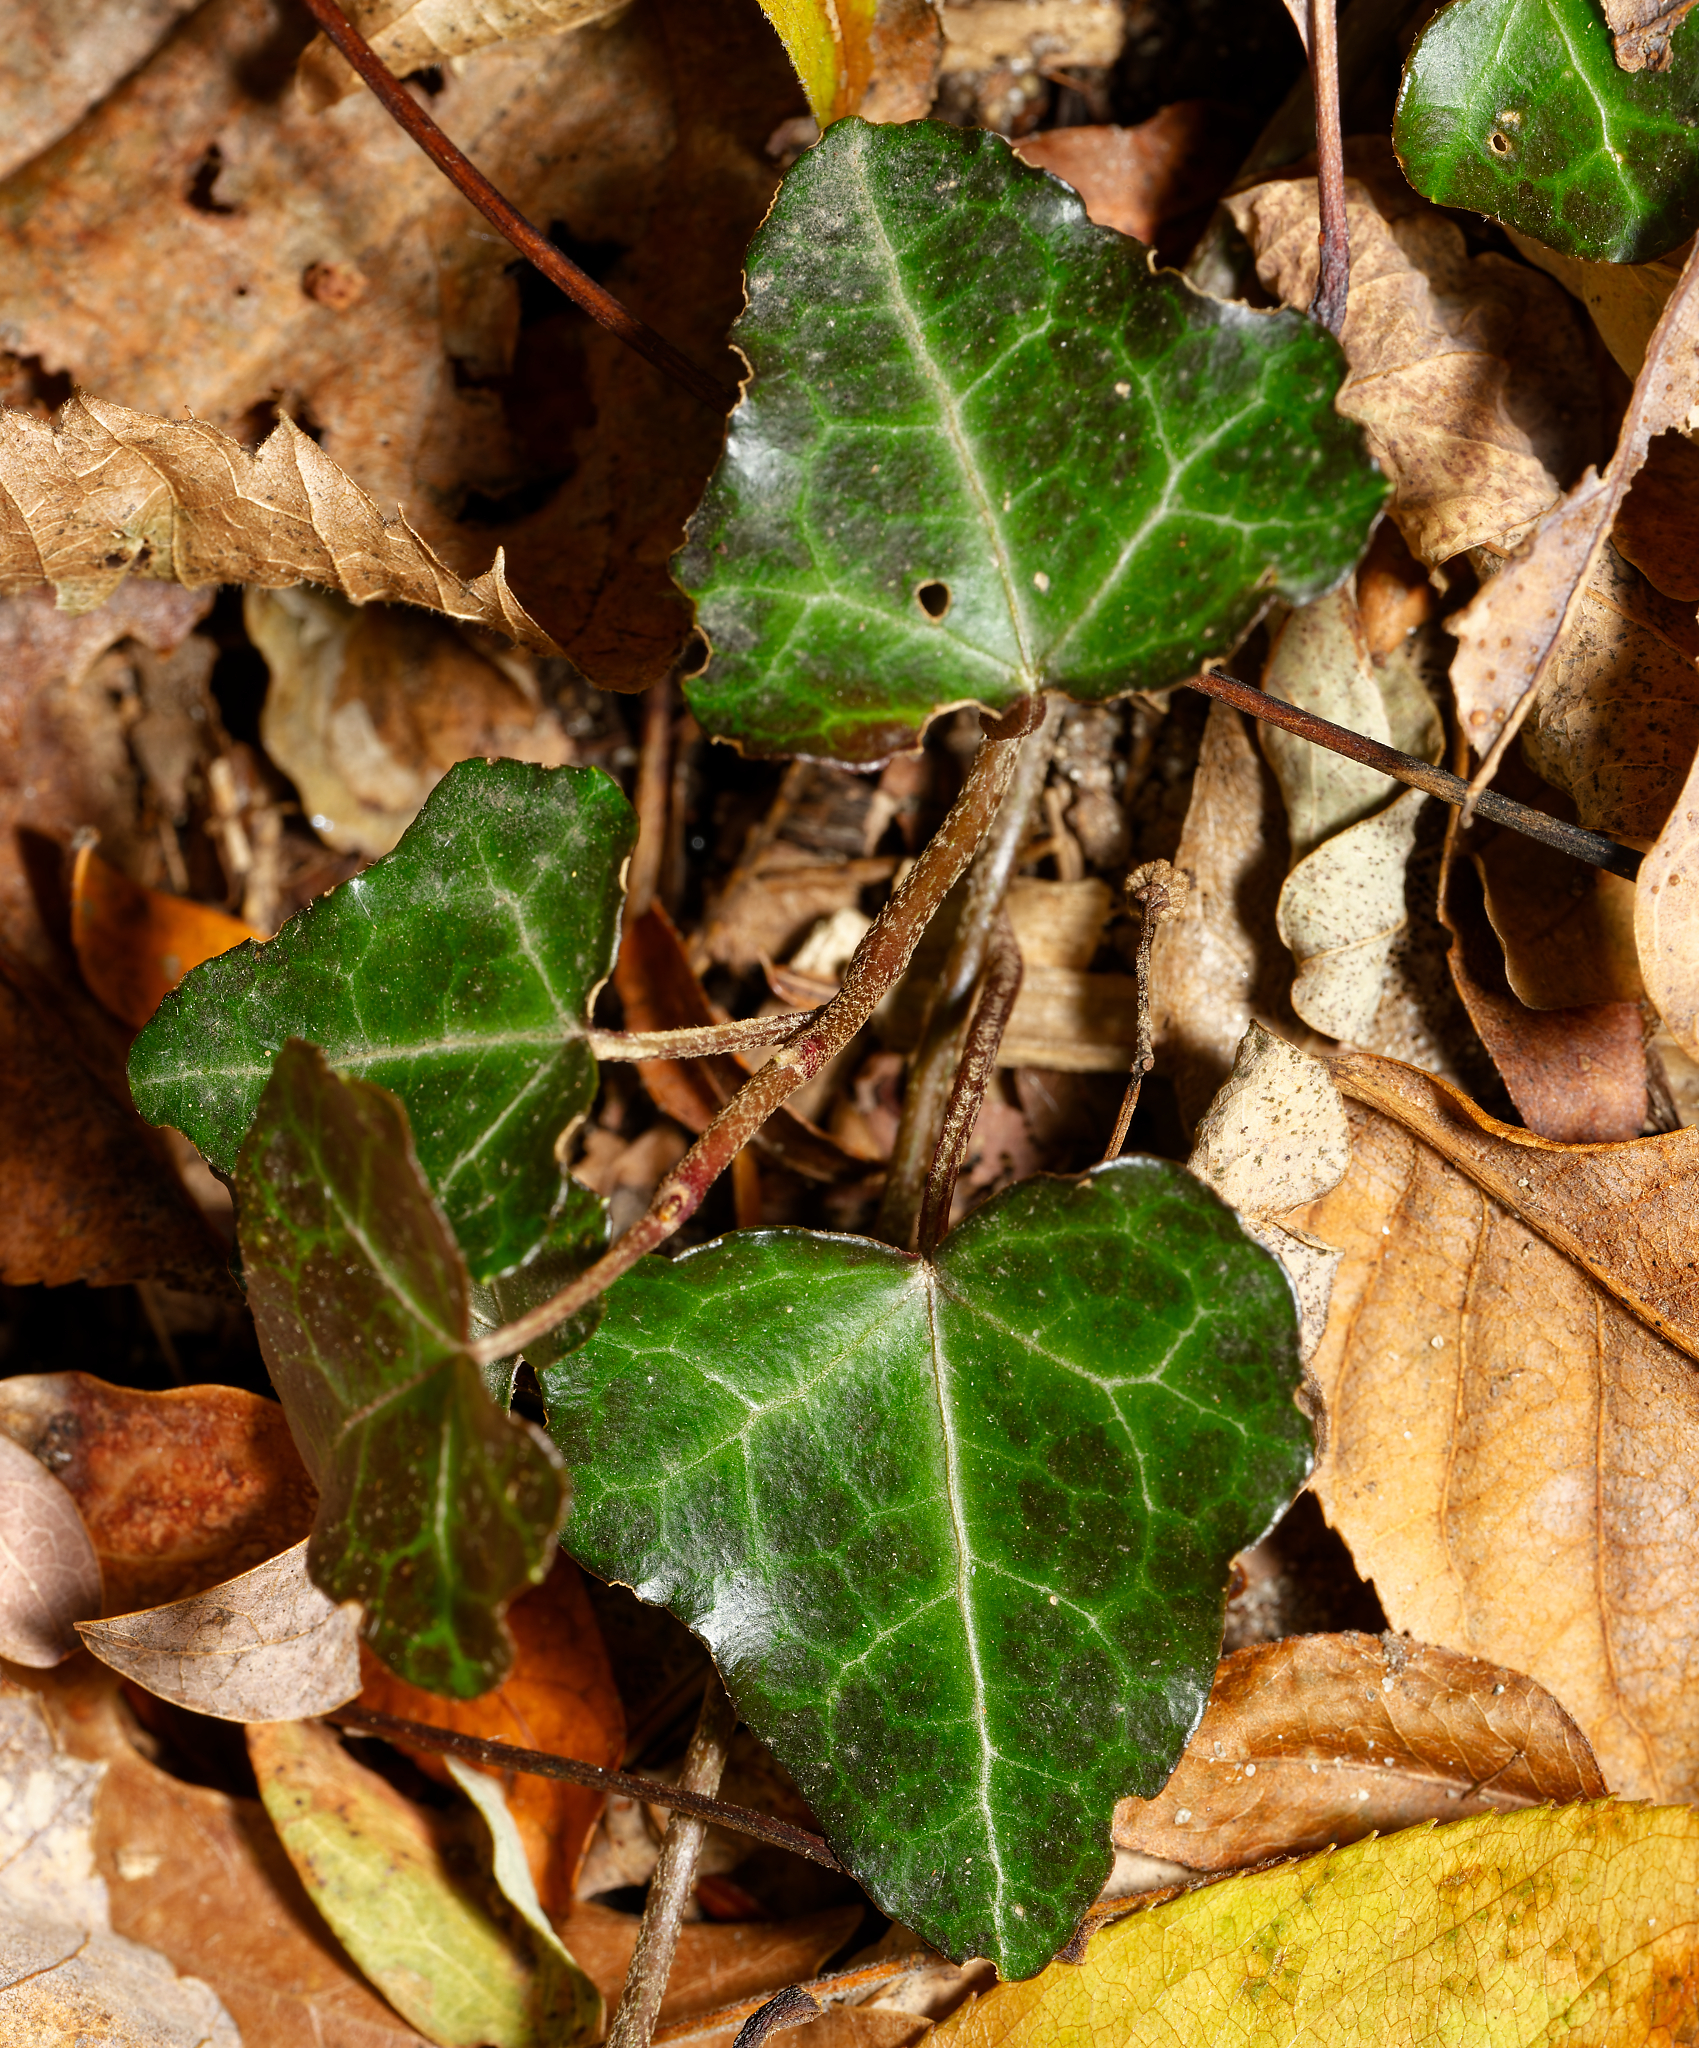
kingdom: Plantae
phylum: Tracheophyta
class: Magnoliopsida
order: Apiales
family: Araliaceae
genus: Hedera
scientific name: Hedera helix
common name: Ivy
